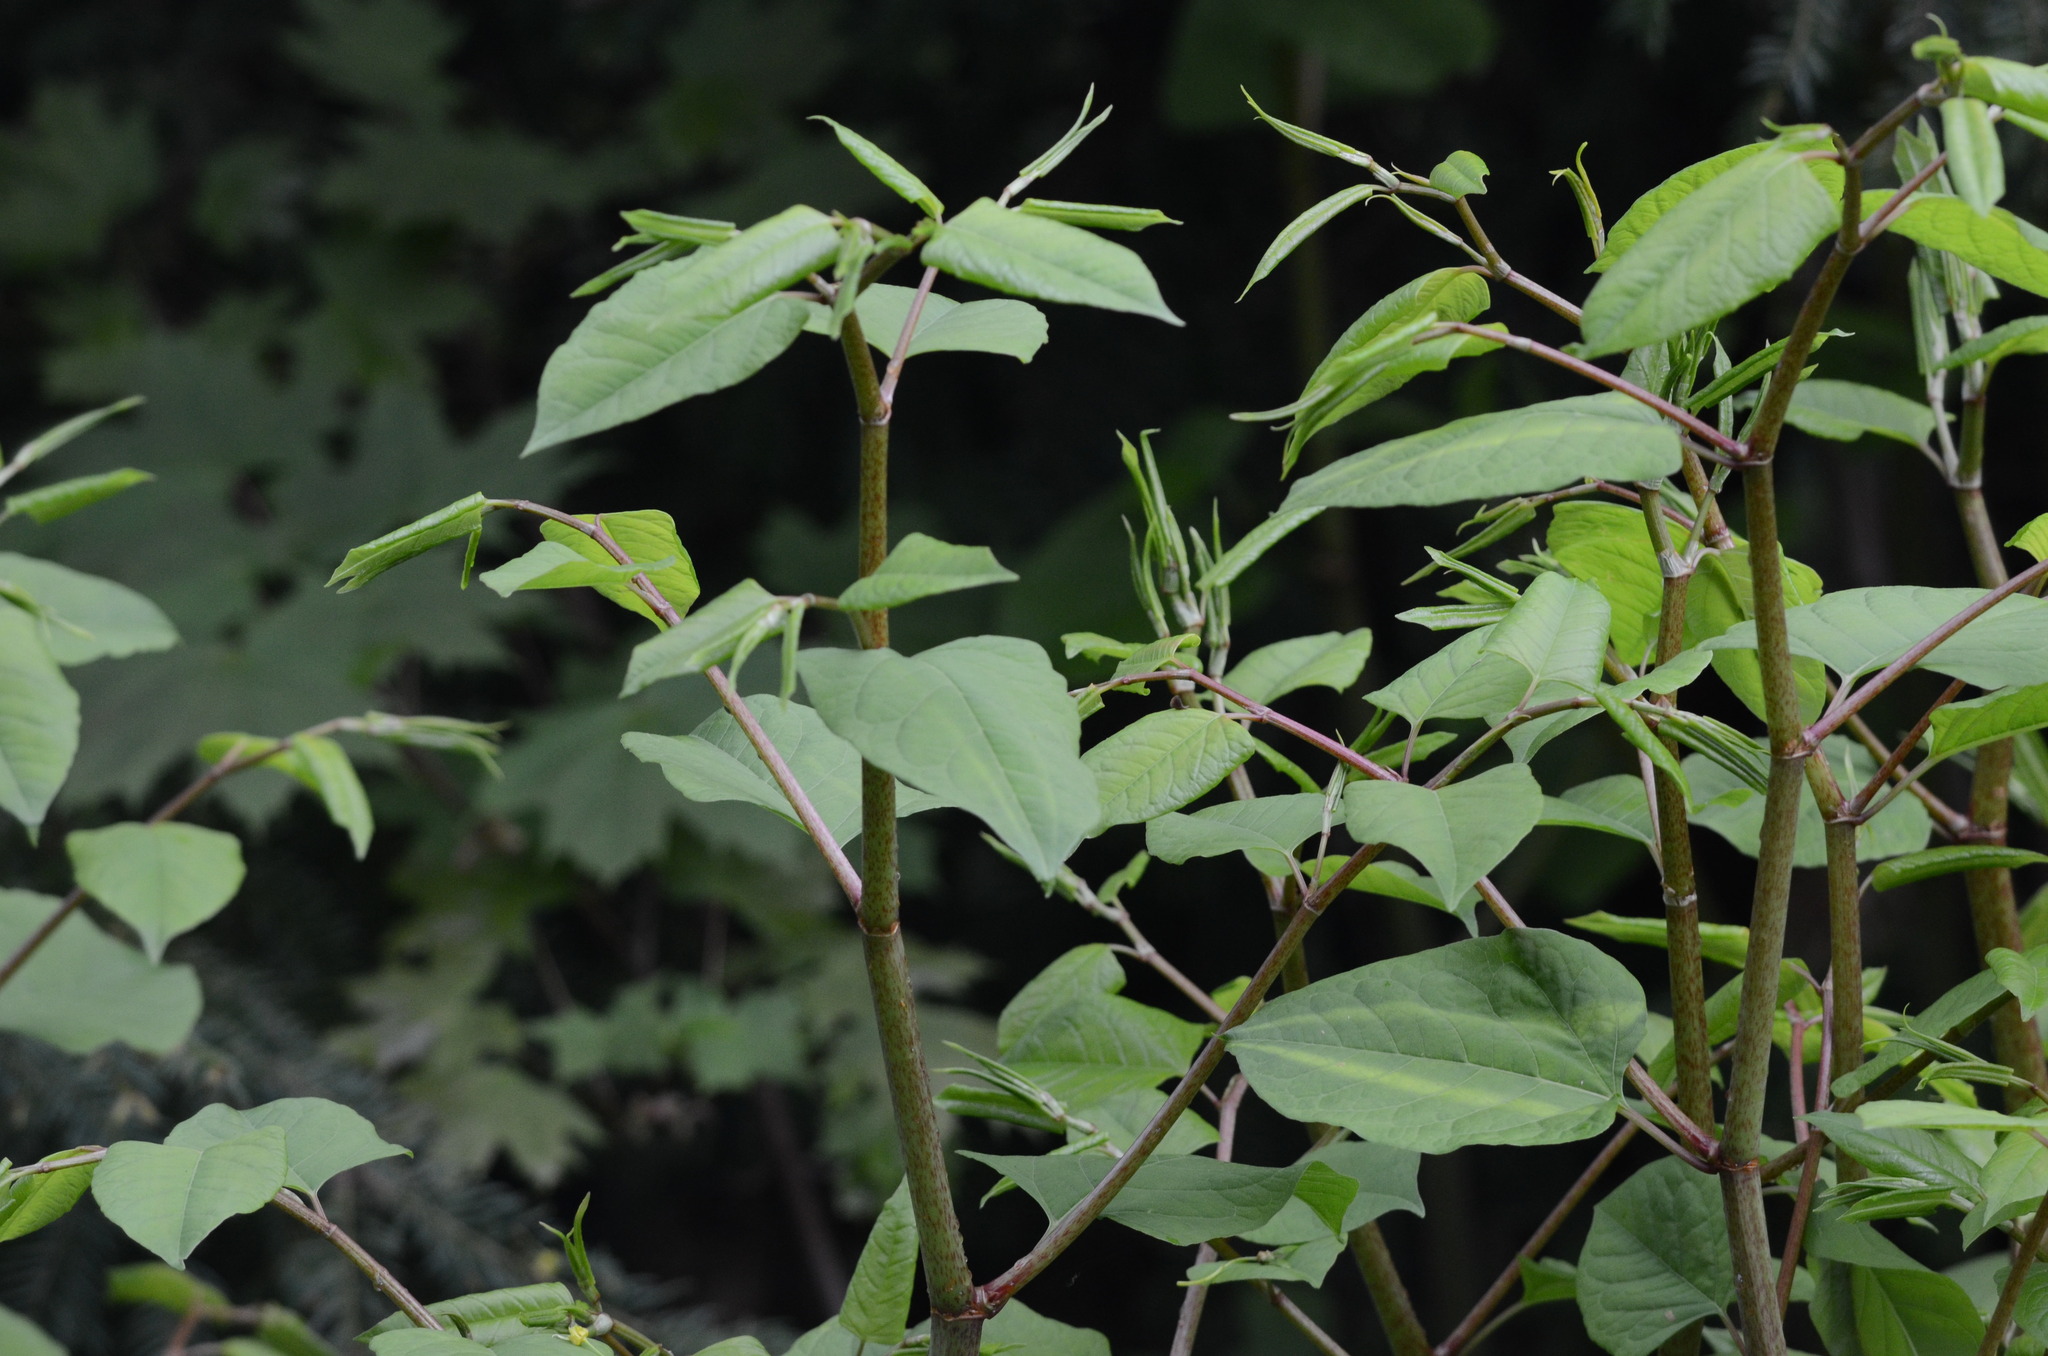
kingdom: Plantae
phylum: Tracheophyta
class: Magnoliopsida
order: Caryophyllales
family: Polygonaceae
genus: Reynoutria
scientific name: Reynoutria japonica
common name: Japanese knotweed
